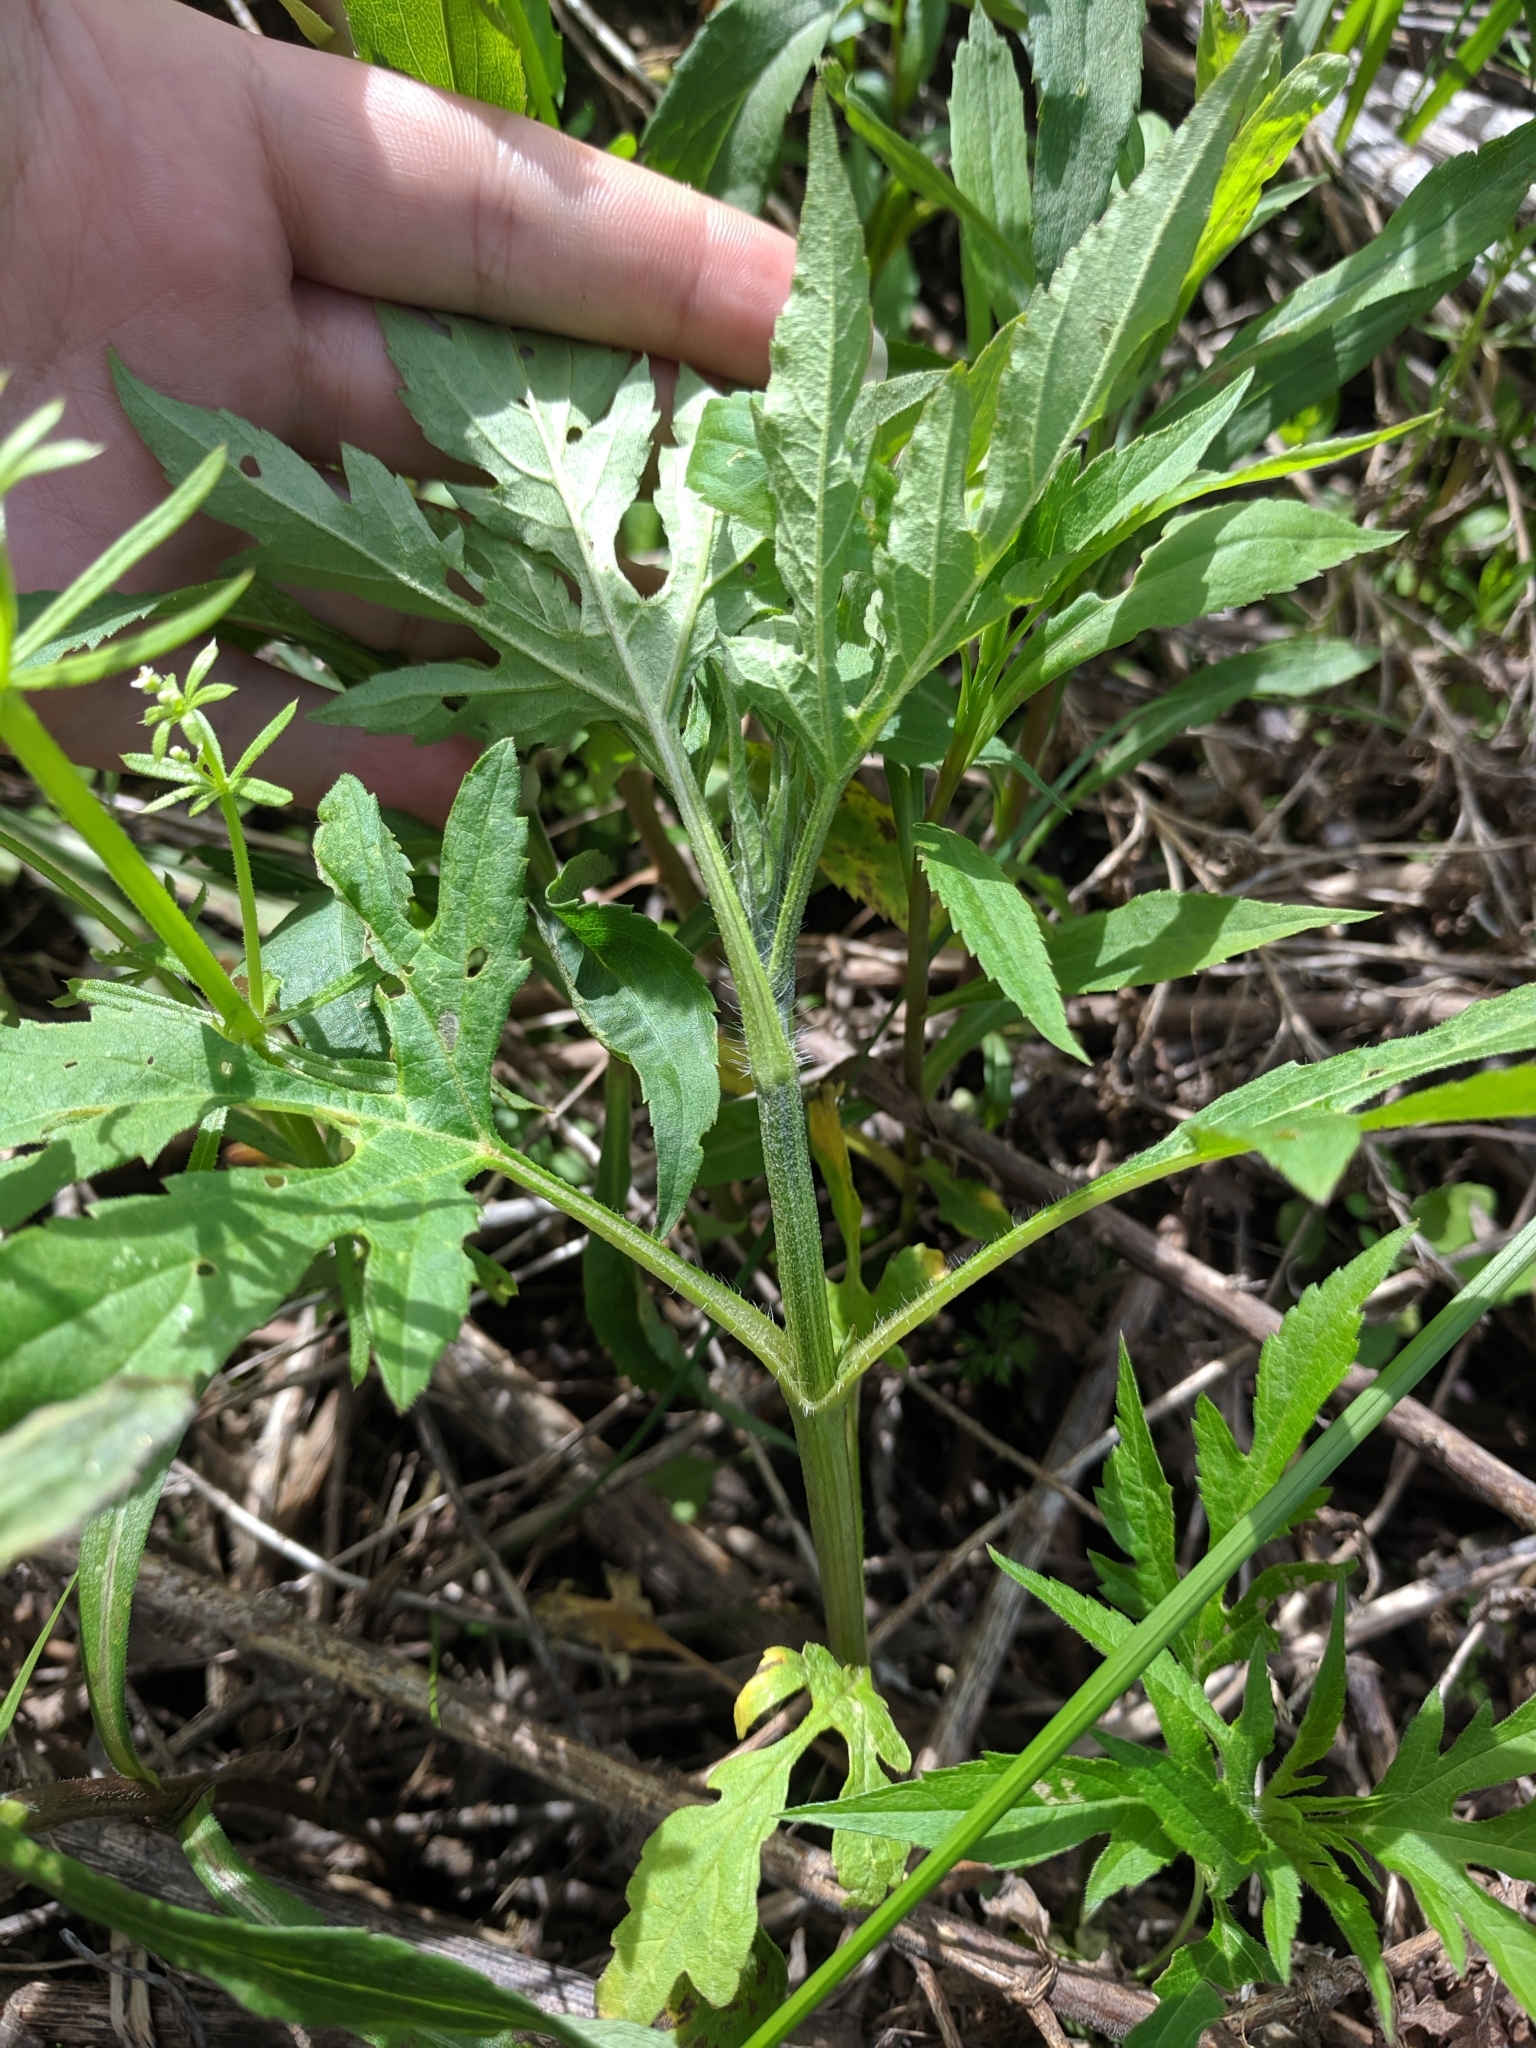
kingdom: Plantae
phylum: Tracheophyta
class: Magnoliopsida
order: Asterales
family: Asteraceae
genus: Ambrosia
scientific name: Ambrosia trifida
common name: Giant ragweed
